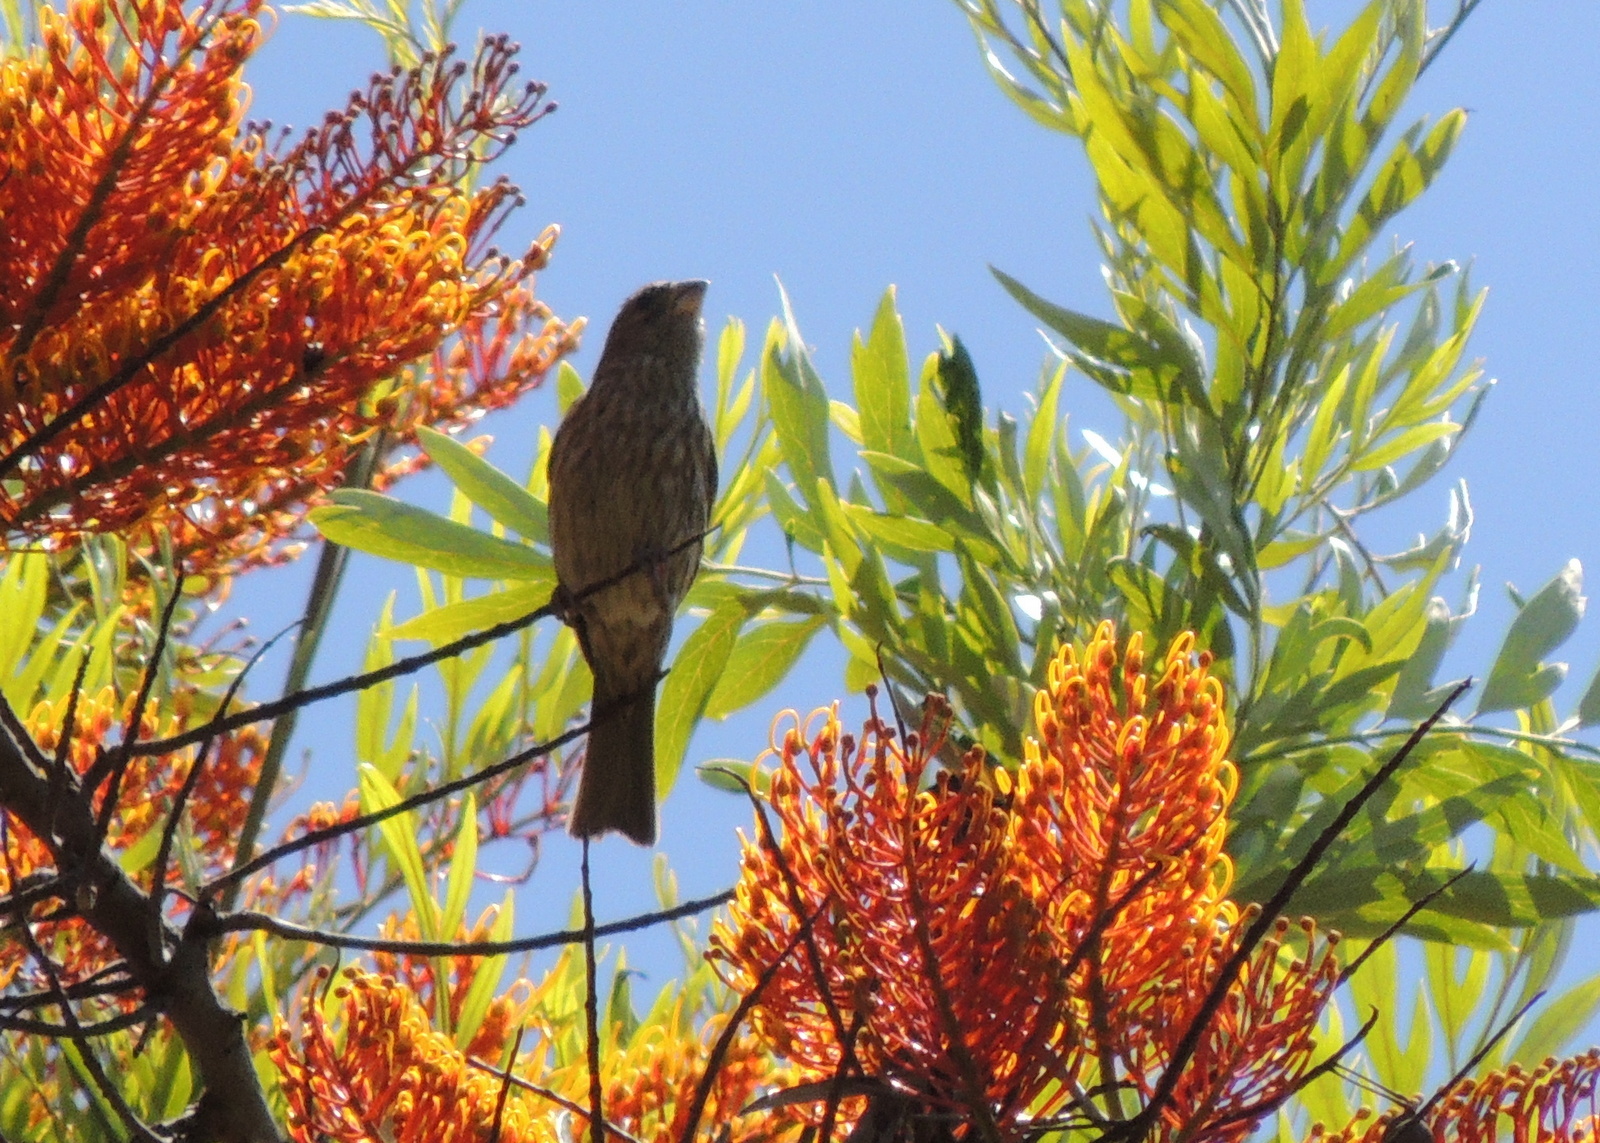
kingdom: Animalia
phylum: Chordata
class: Aves
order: Passeriformes
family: Fringillidae
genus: Haemorhous
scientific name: Haemorhous mexicanus
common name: House finch
